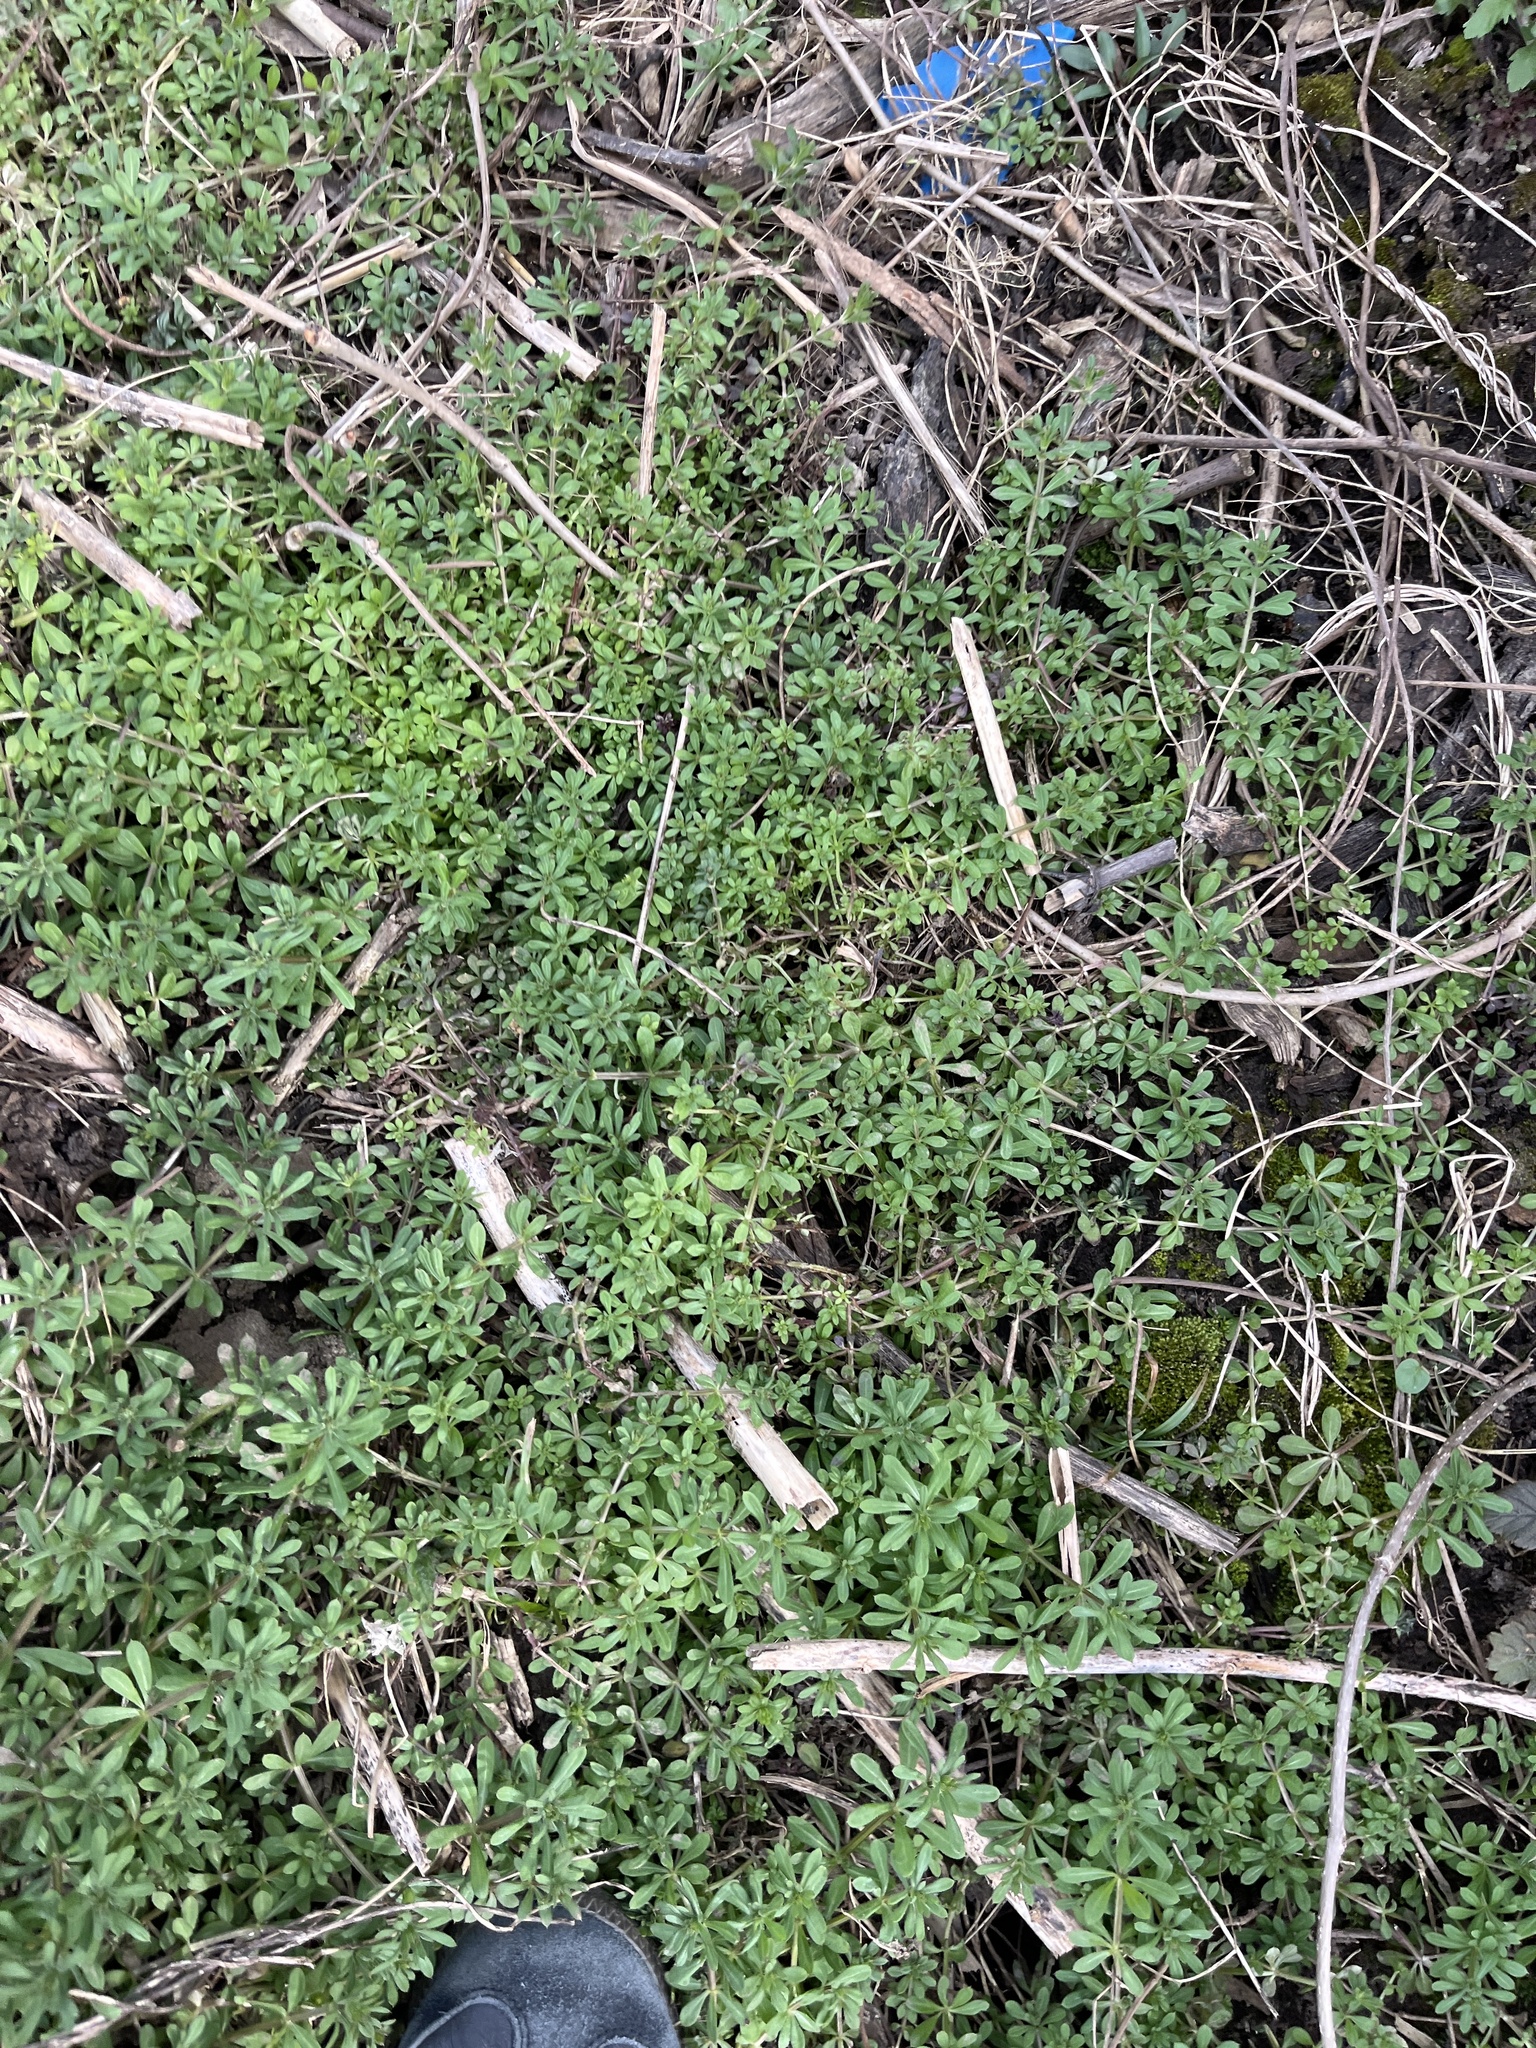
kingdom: Plantae
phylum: Tracheophyta
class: Magnoliopsida
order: Gentianales
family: Rubiaceae
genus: Galium
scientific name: Galium aparine
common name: Cleavers
